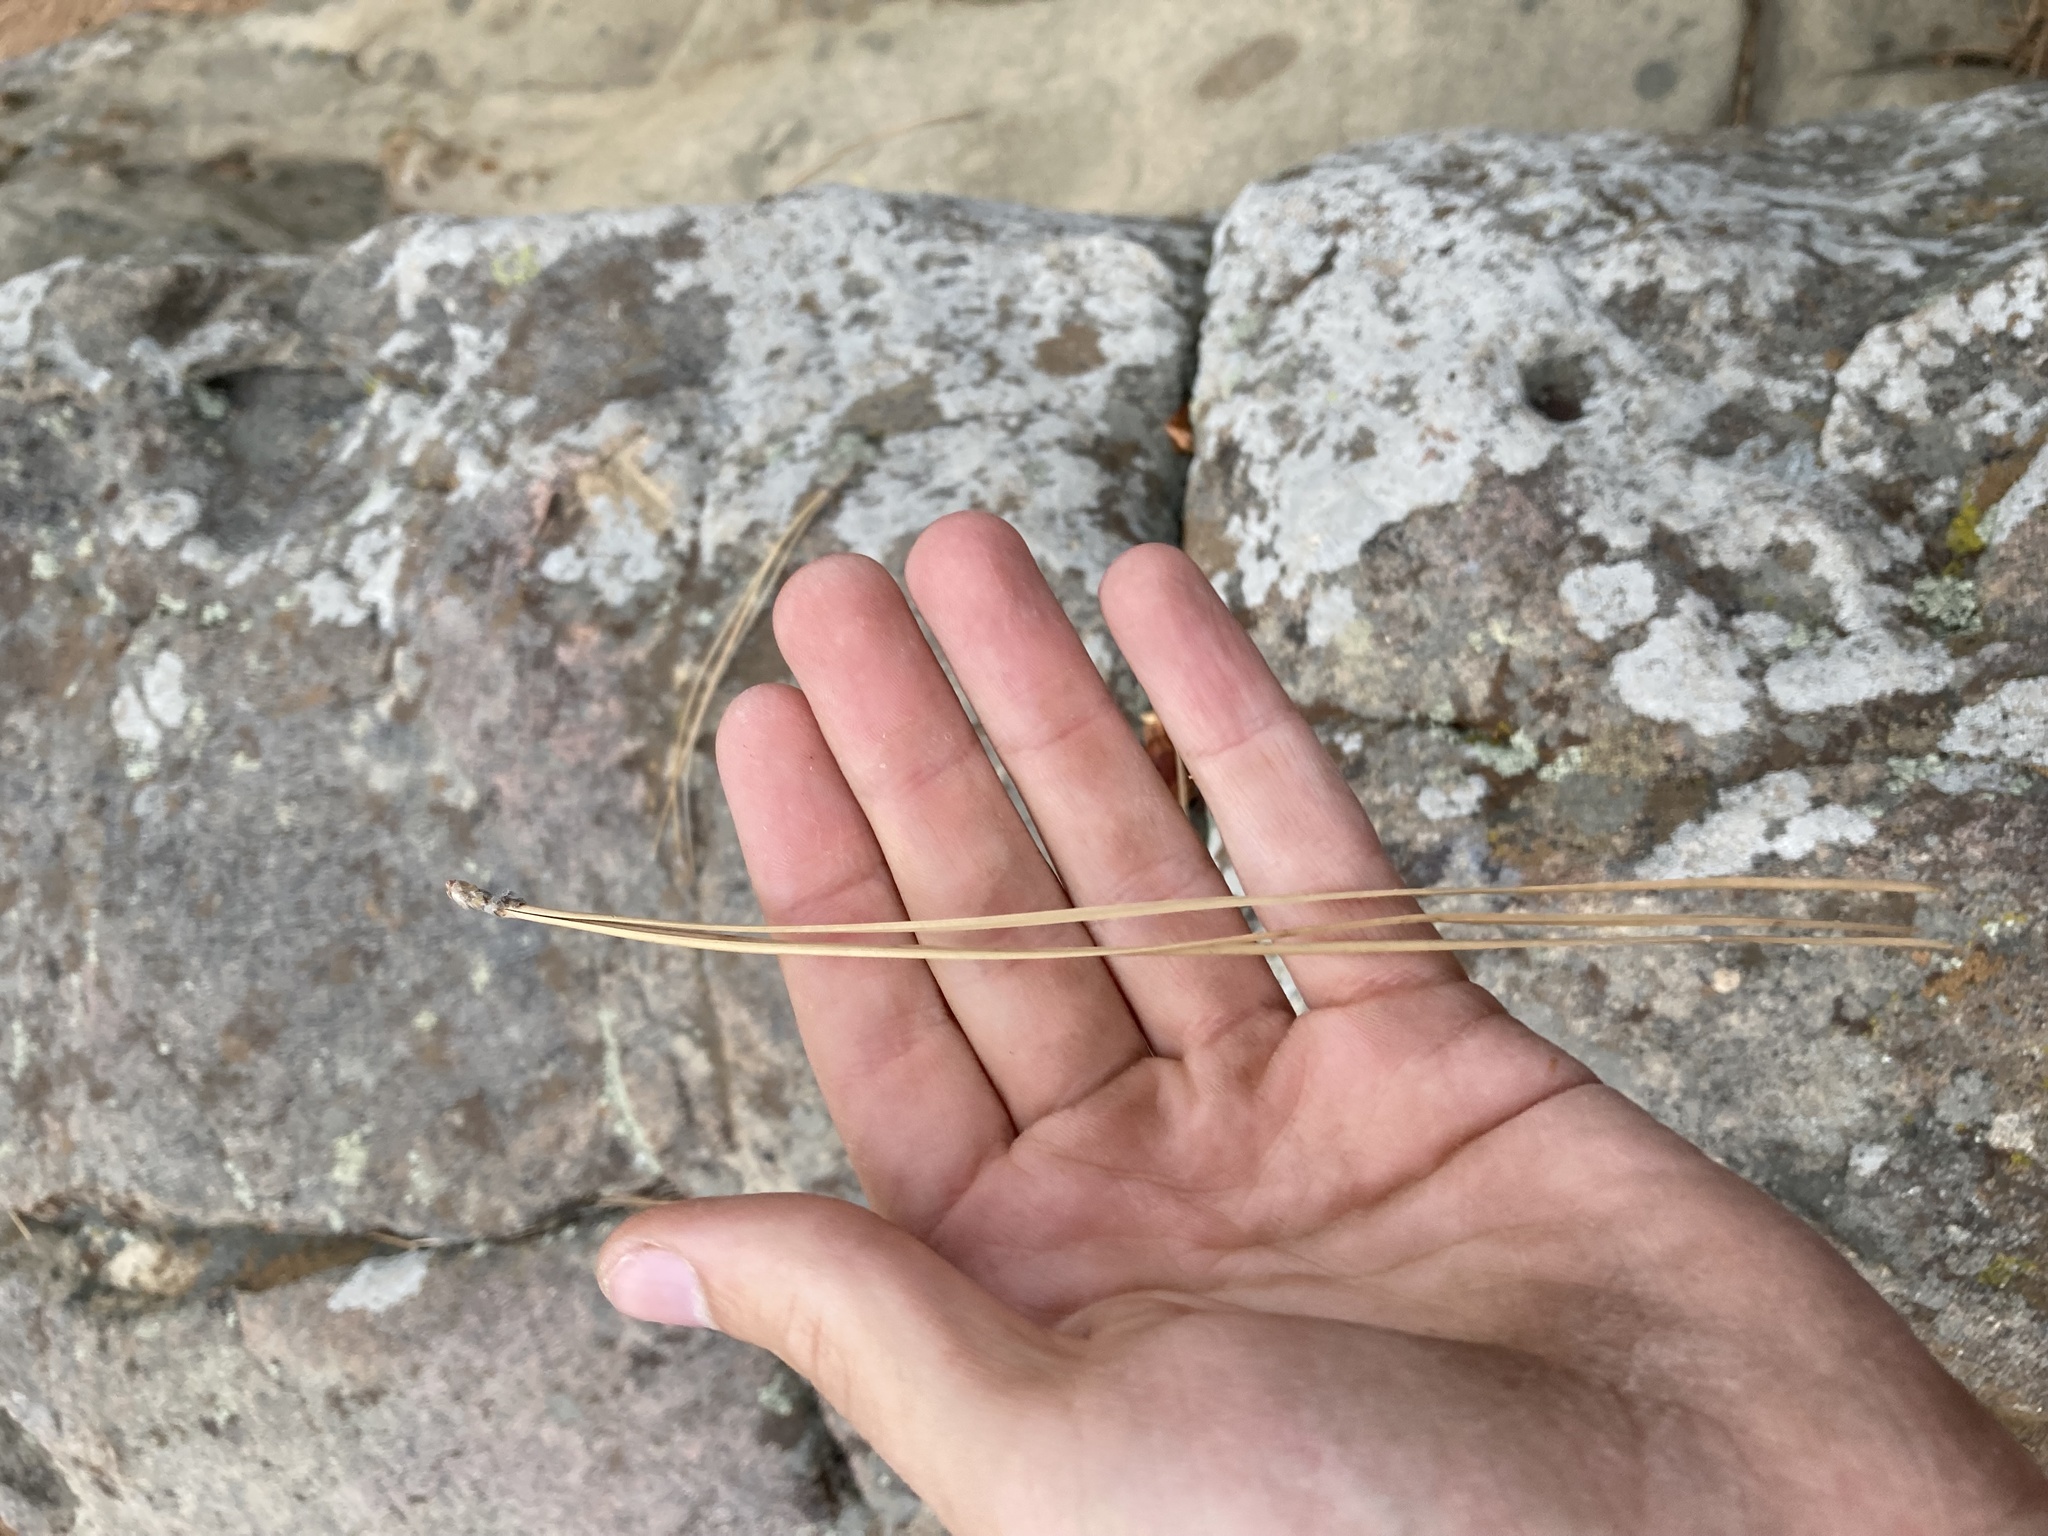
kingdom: Plantae
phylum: Tracheophyta
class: Pinopsida
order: Pinales
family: Pinaceae
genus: Pinus
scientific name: Pinus jeffreyi
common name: Jeffrey pine
